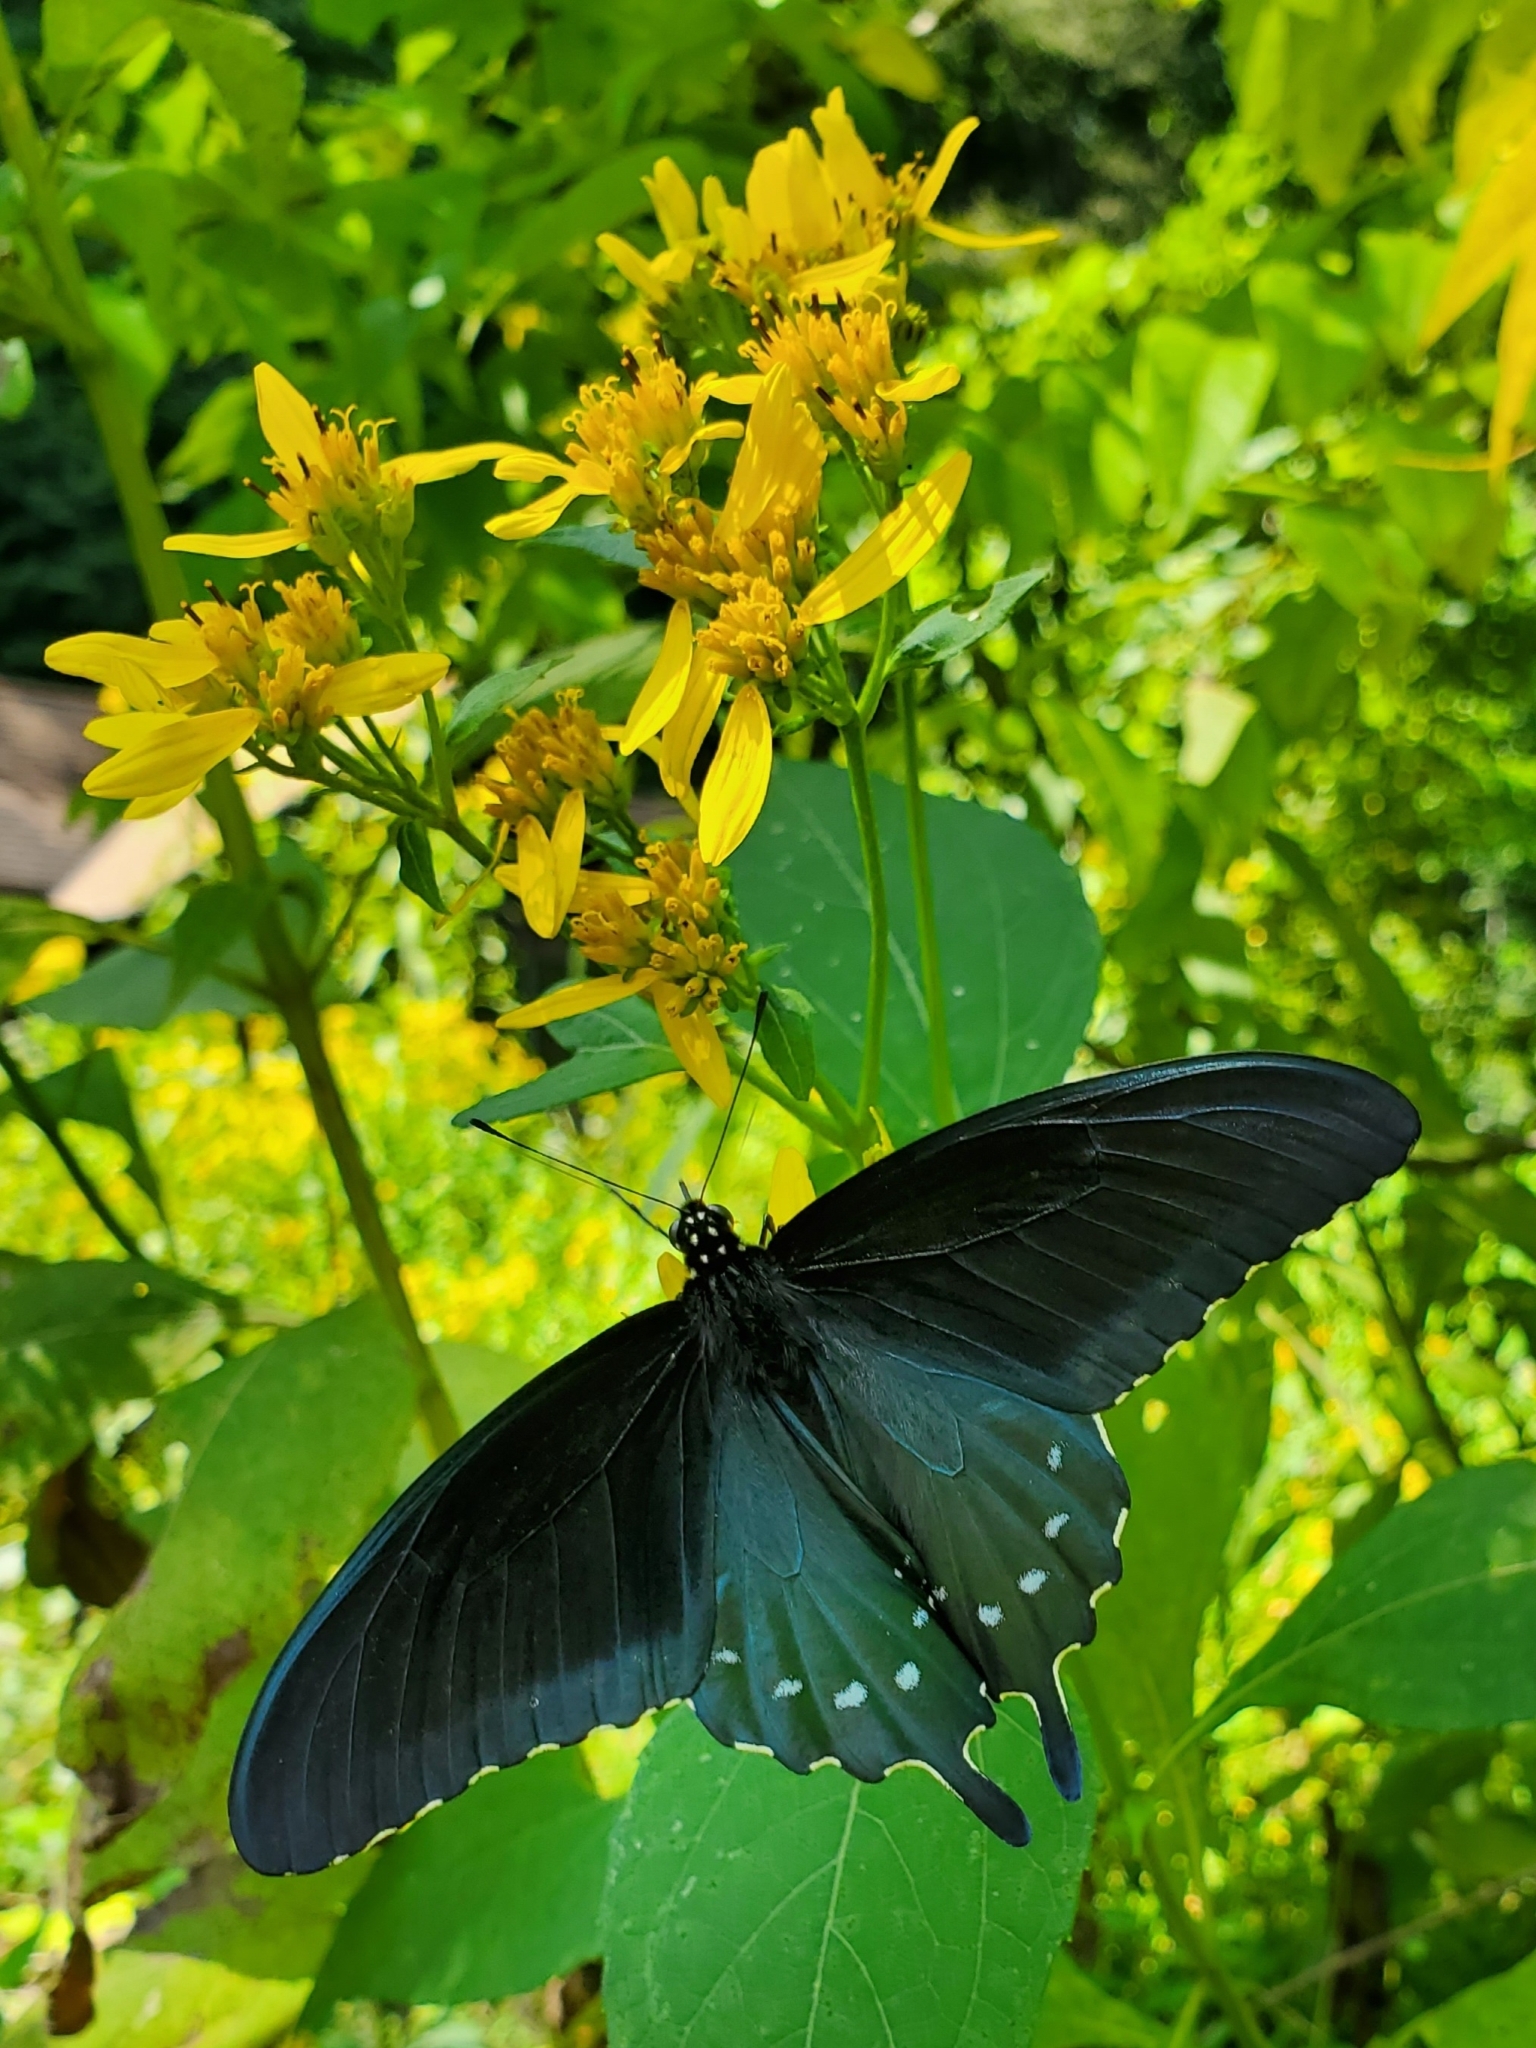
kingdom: Animalia
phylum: Arthropoda
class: Insecta
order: Lepidoptera
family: Papilionidae
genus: Battus
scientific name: Battus philenor
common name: Pipevine swallowtail
